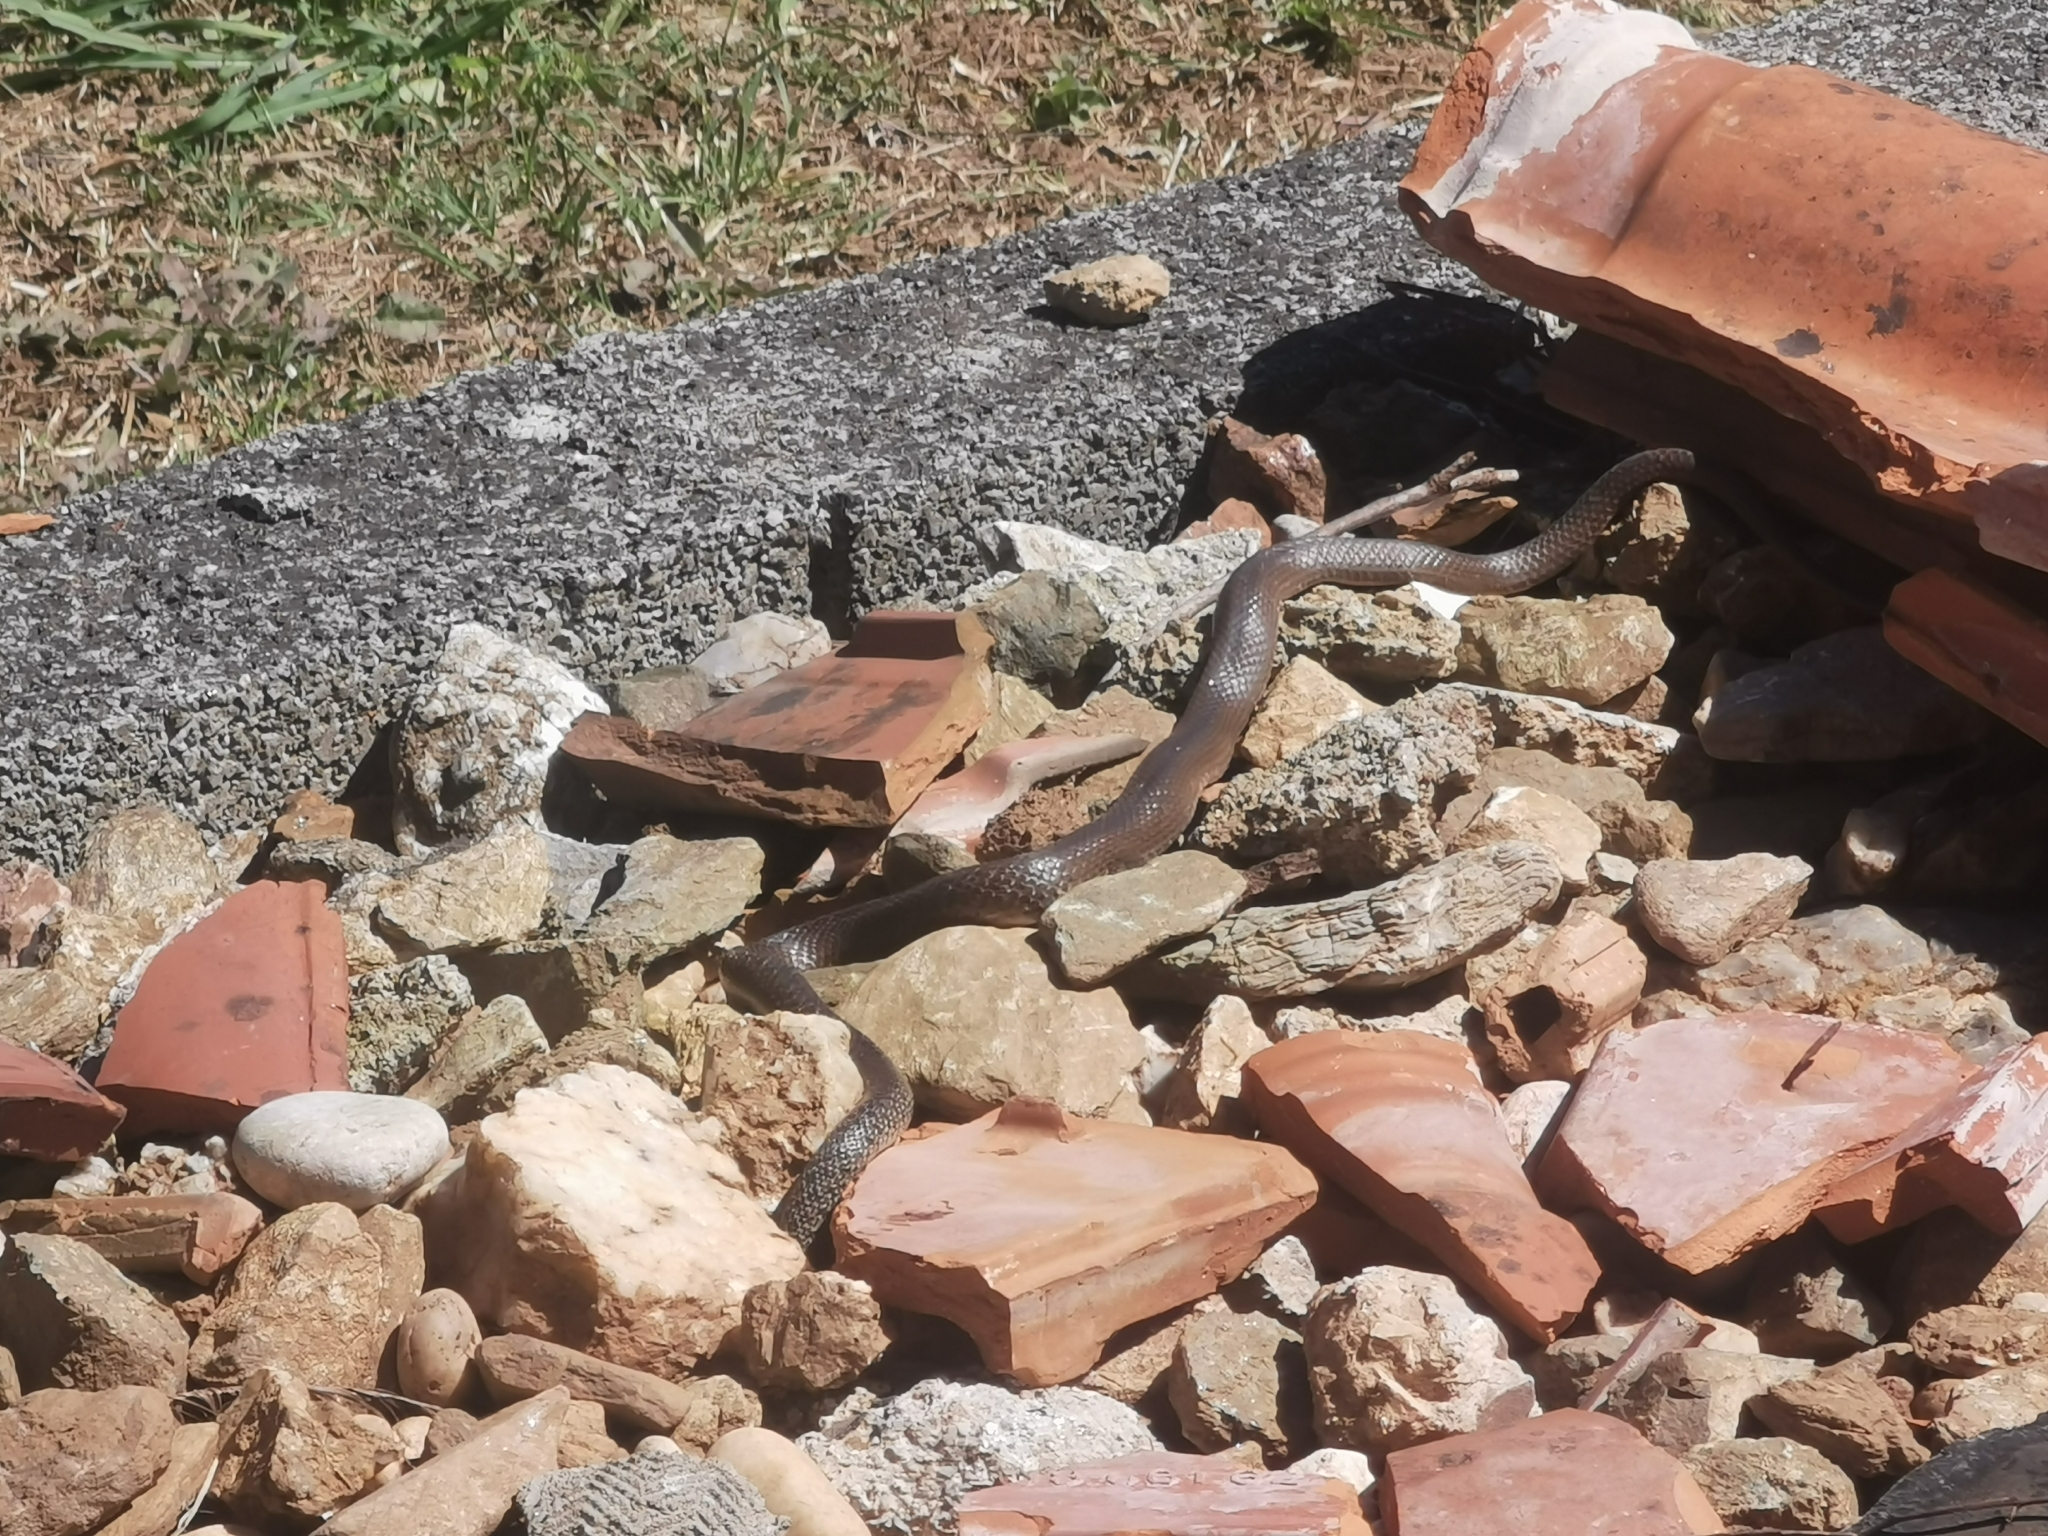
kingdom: Animalia
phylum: Chordata
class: Squamata
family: Colubridae
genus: Hierophis
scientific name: Hierophis gemonensis
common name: Balkan whip snake
